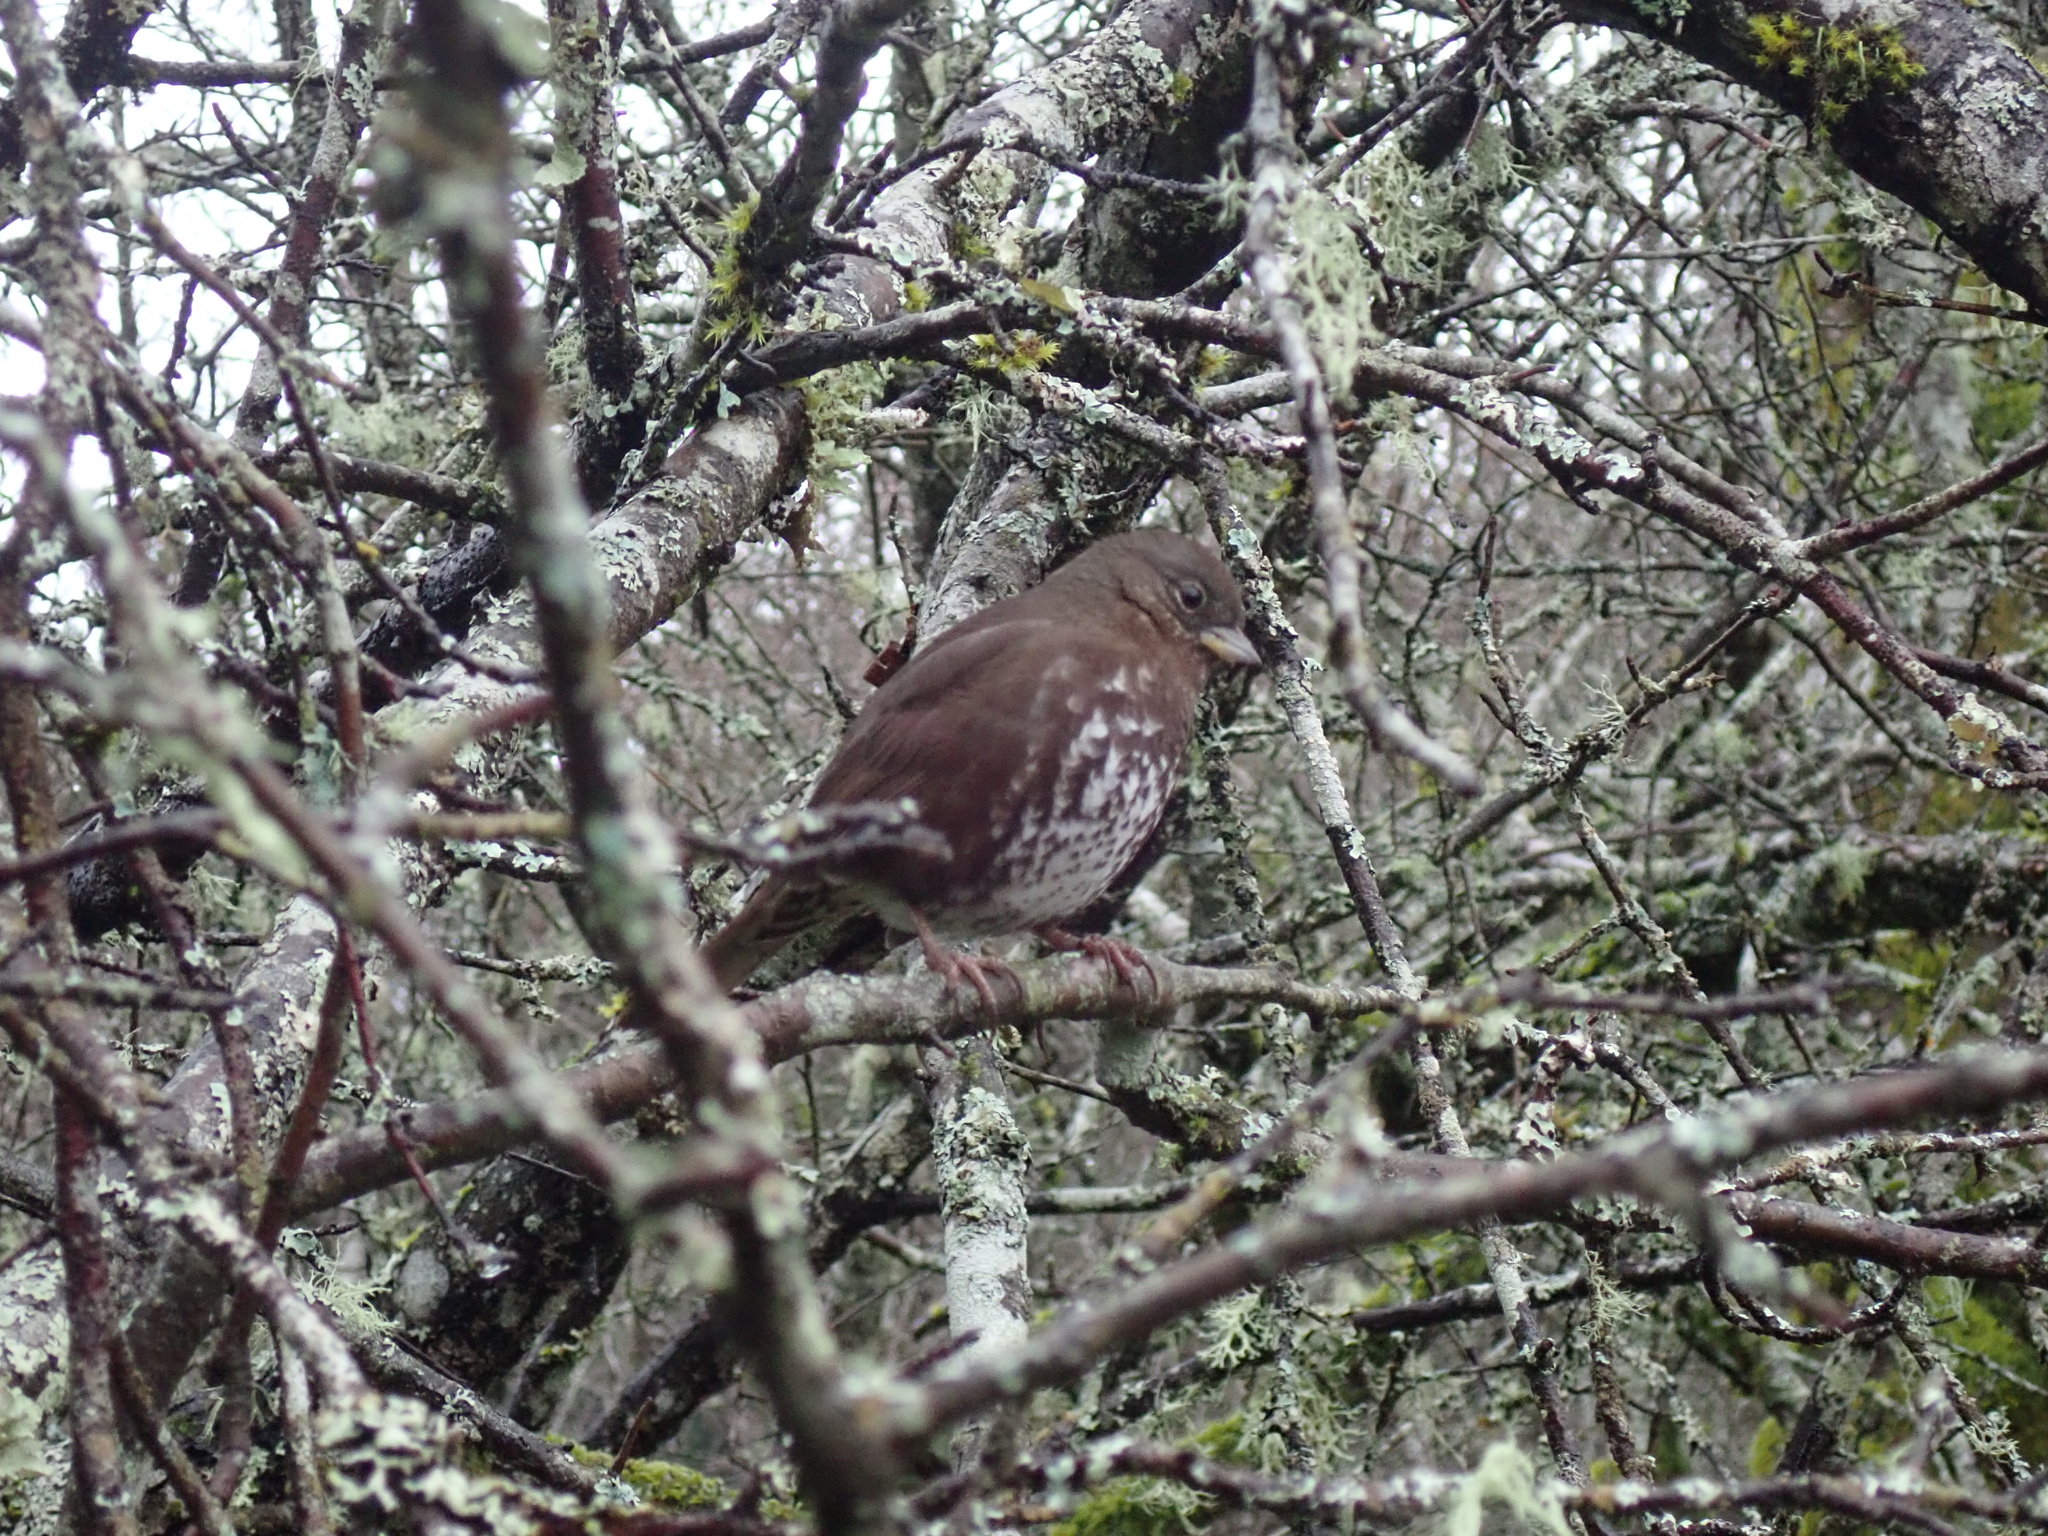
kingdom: Animalia
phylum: Chordata
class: Aves
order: Passeriformes
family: Passerellidae
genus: Passerella
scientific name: Passerella iliaca
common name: Fox sparrow
